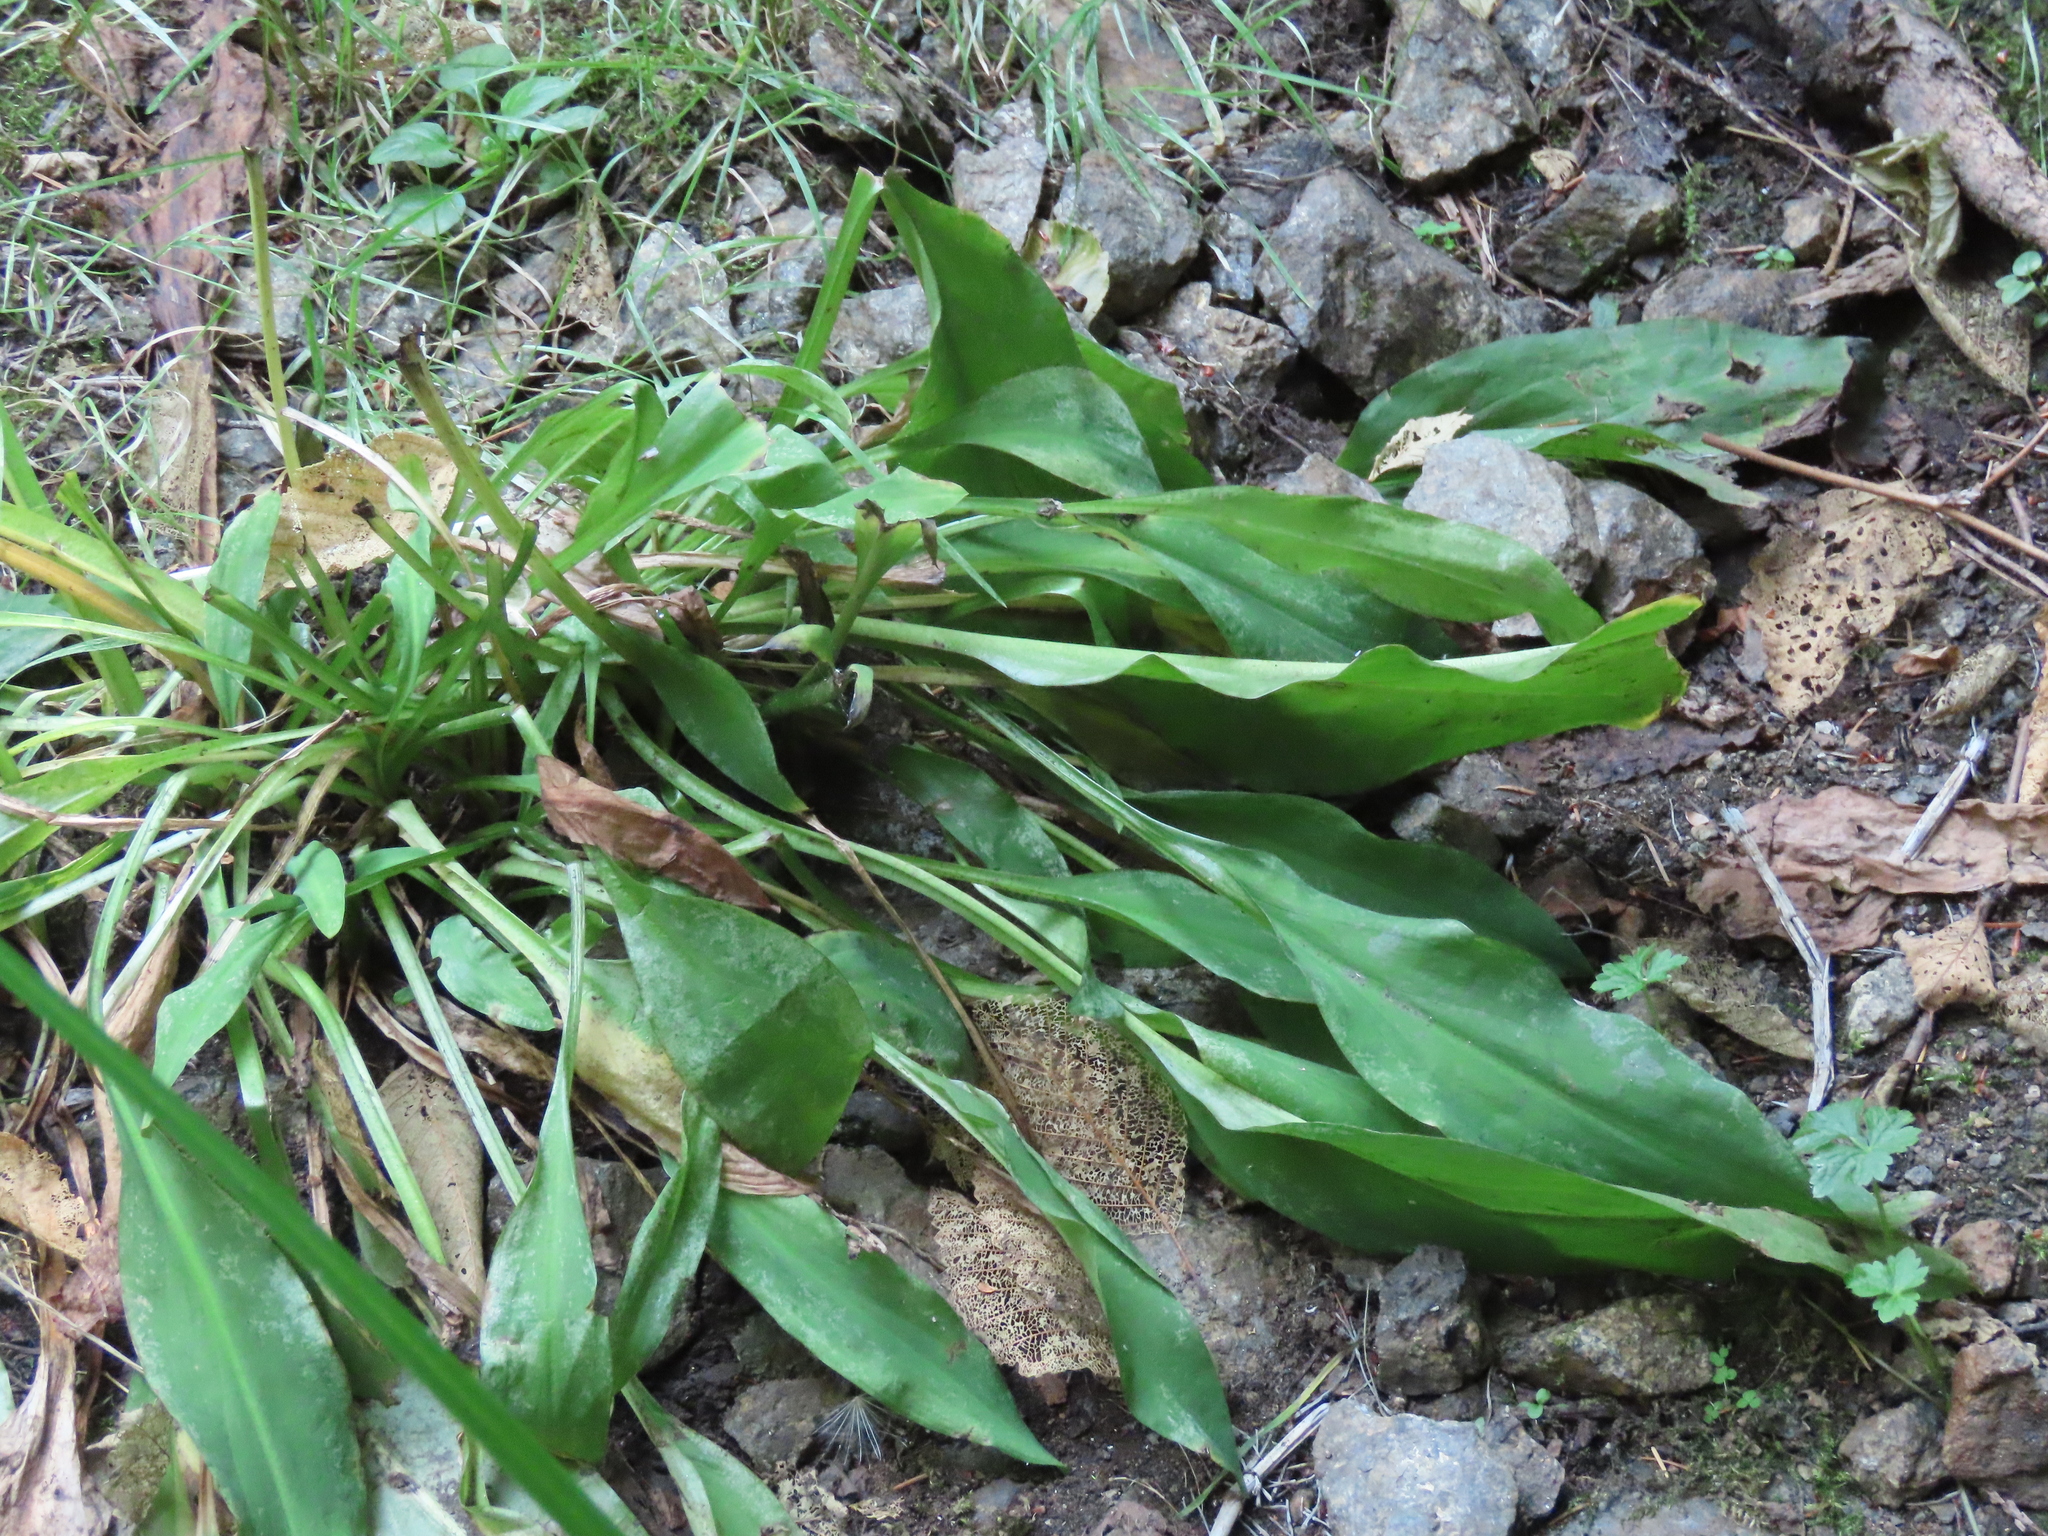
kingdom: Plantae
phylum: Tracheophyta
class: Liliopsida
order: Alismatales
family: Araceae
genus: Lysichiton
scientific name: Lysichiton americanus
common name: American skunk cabbage
